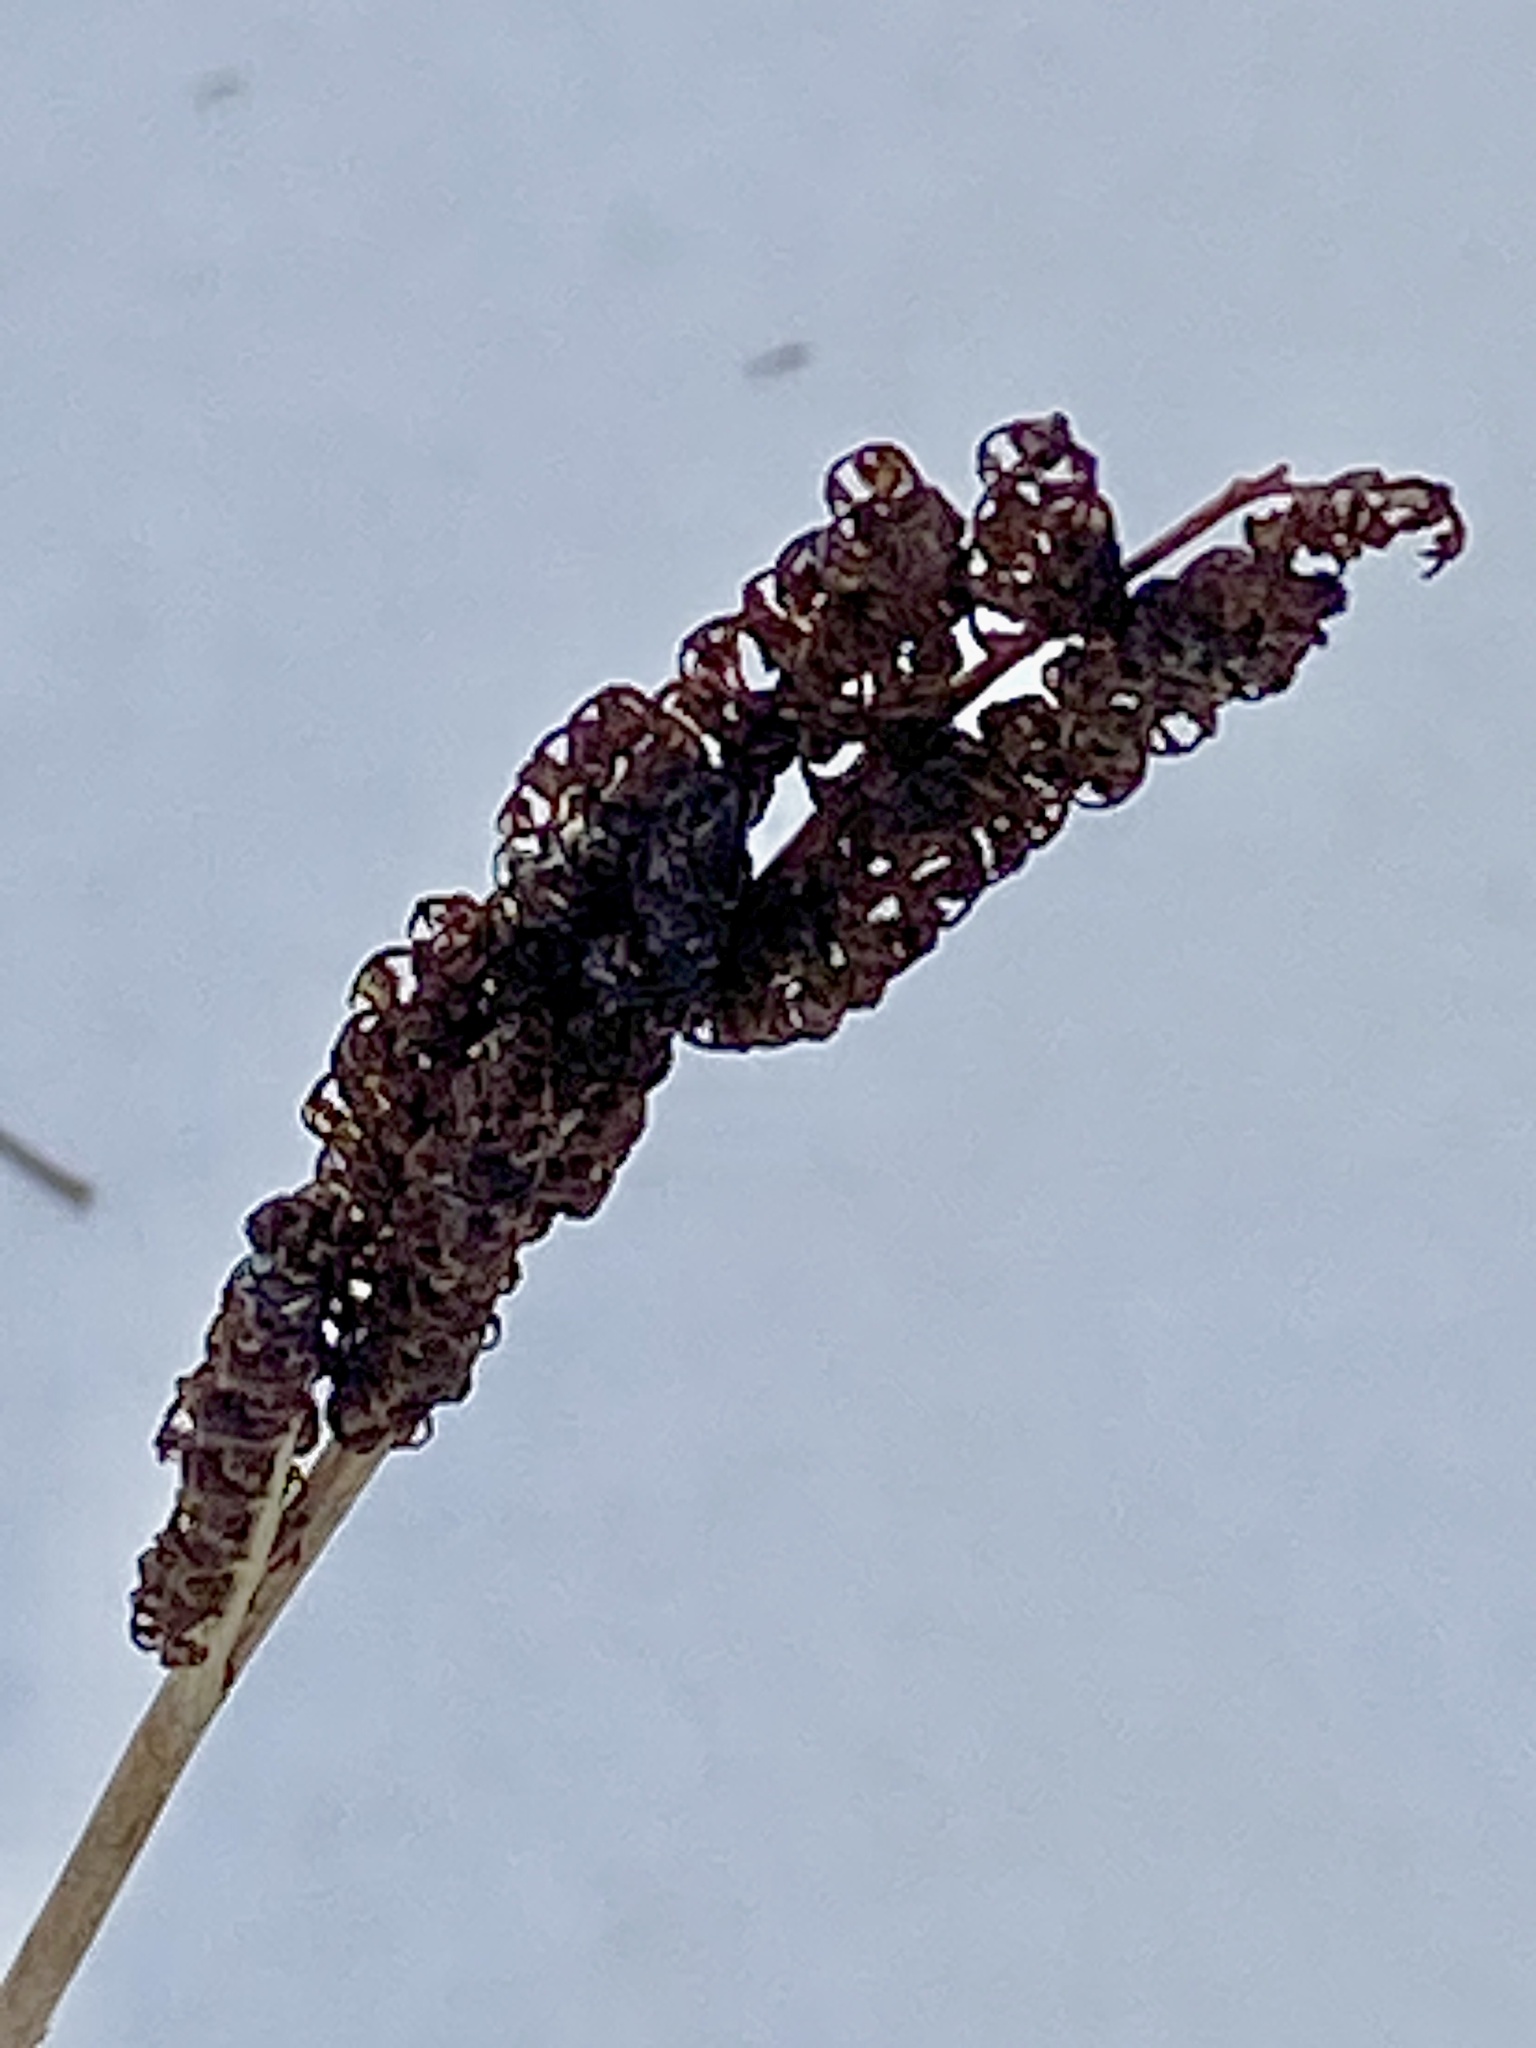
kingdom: Plantae
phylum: Tracheophyta
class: Polypodiopsida
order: Polypodiales
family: Onocleaceae
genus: Onoclea
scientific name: Onoclea sensibilis
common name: Sensitive fern
